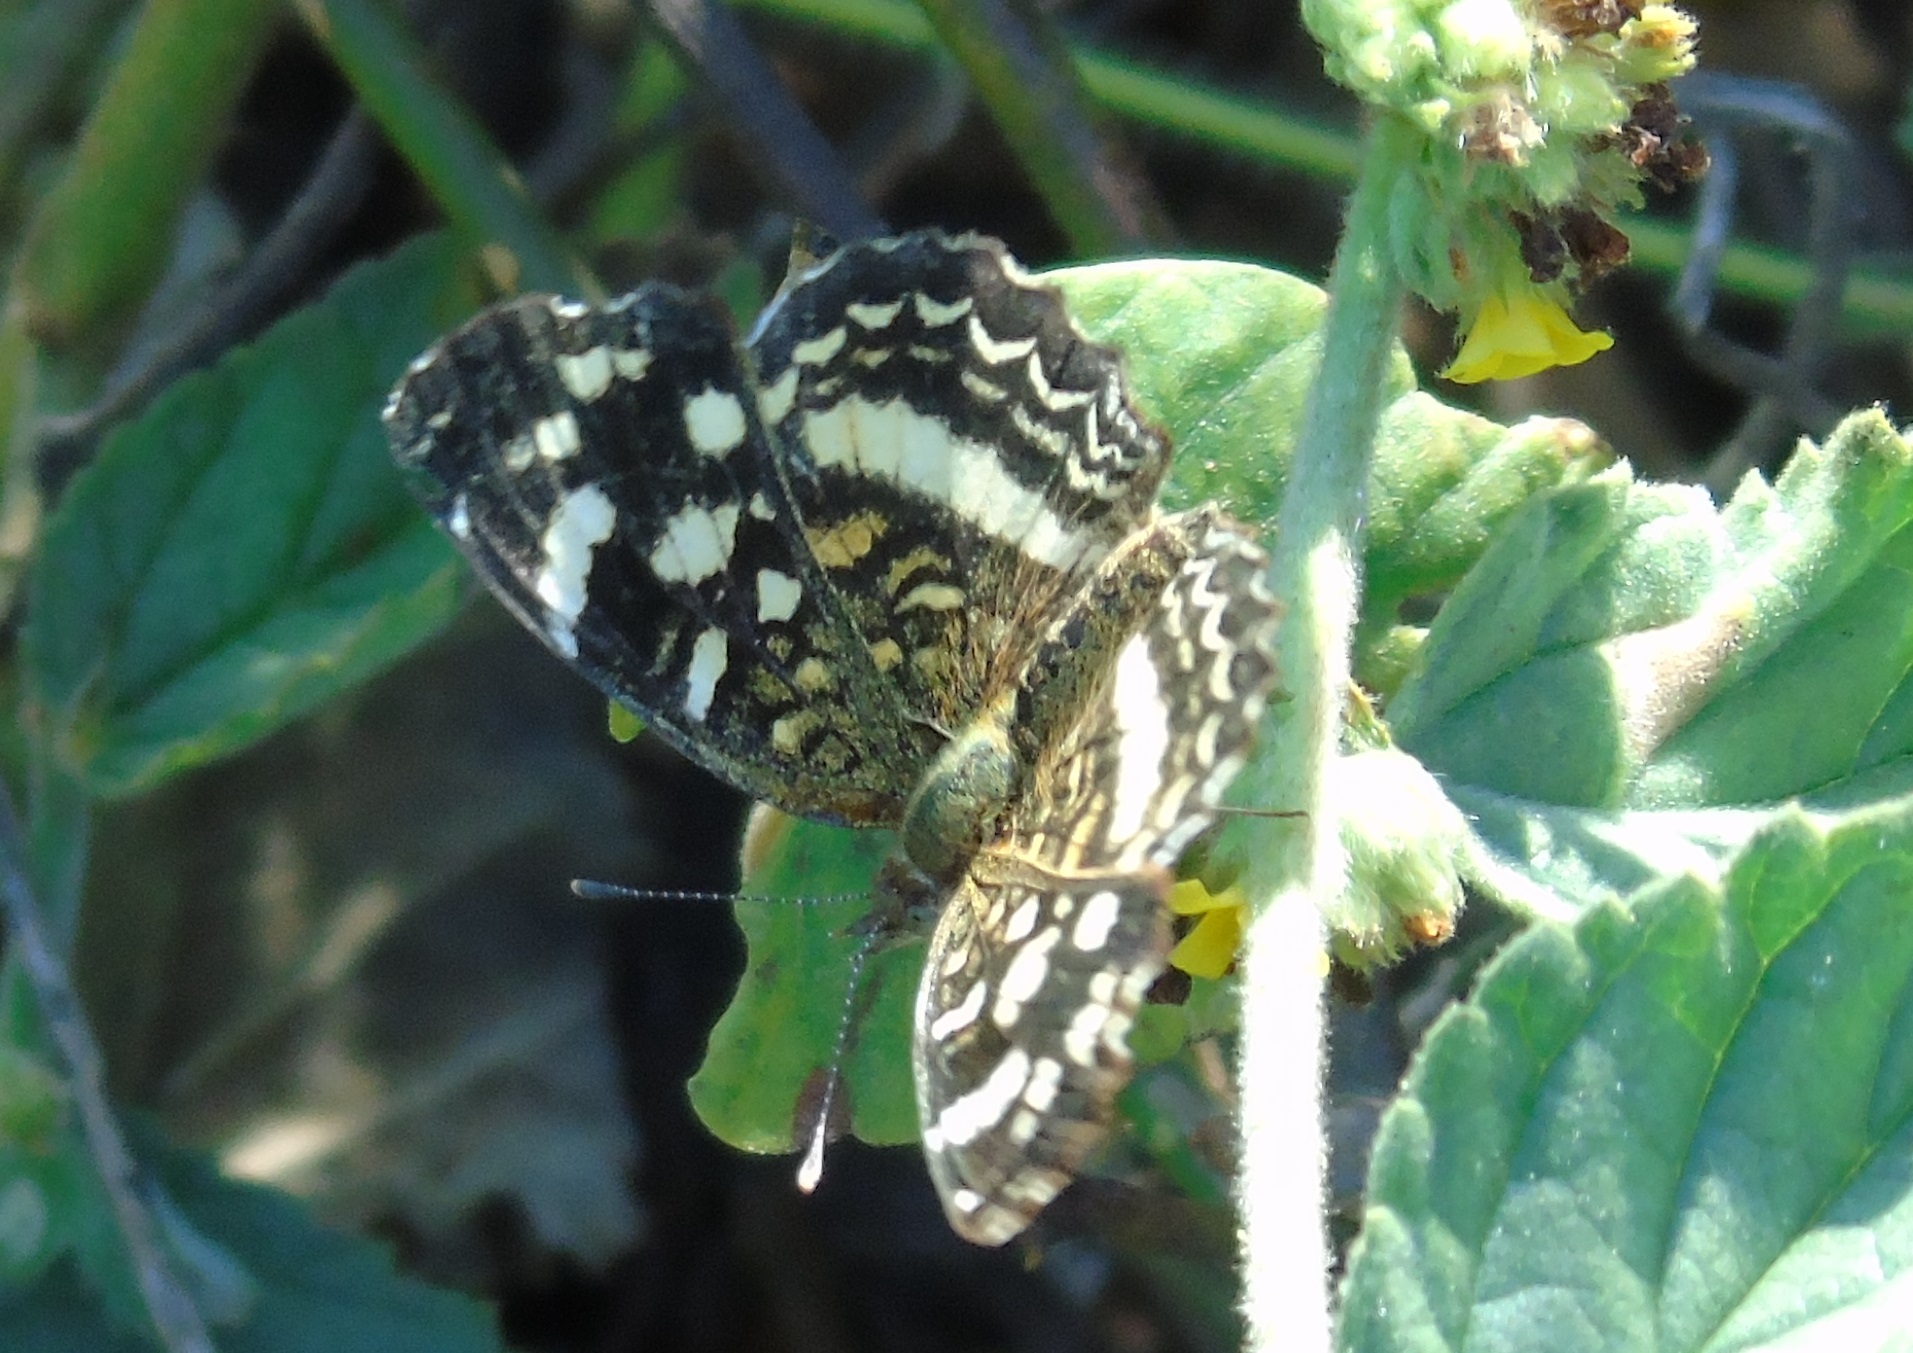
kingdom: Animalia
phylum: Arthropoda
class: Insecta
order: Lepidoptera
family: Nymphalidae
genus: Anthanassa
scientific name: Anthanassa tulcis
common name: Pale-banded crescent
